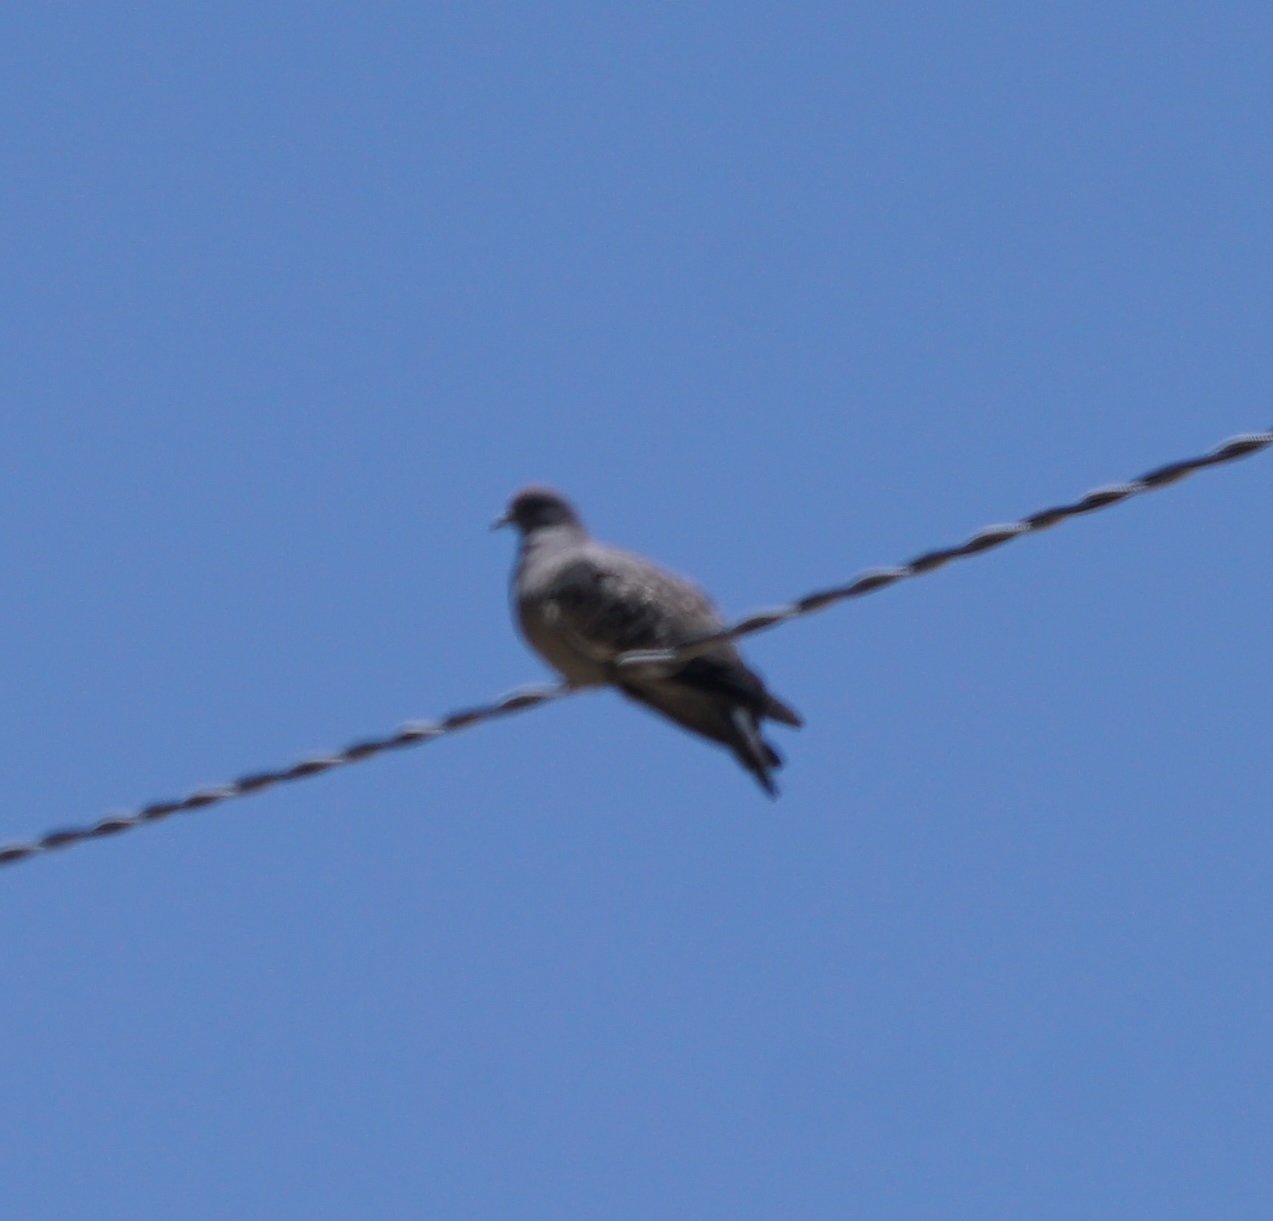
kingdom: Animalia
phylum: Chordata
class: Aves
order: Columbiformes
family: Columbidae
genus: Patagioenas
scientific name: Patagioenas maculosa
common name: Spot-winged pigeon
